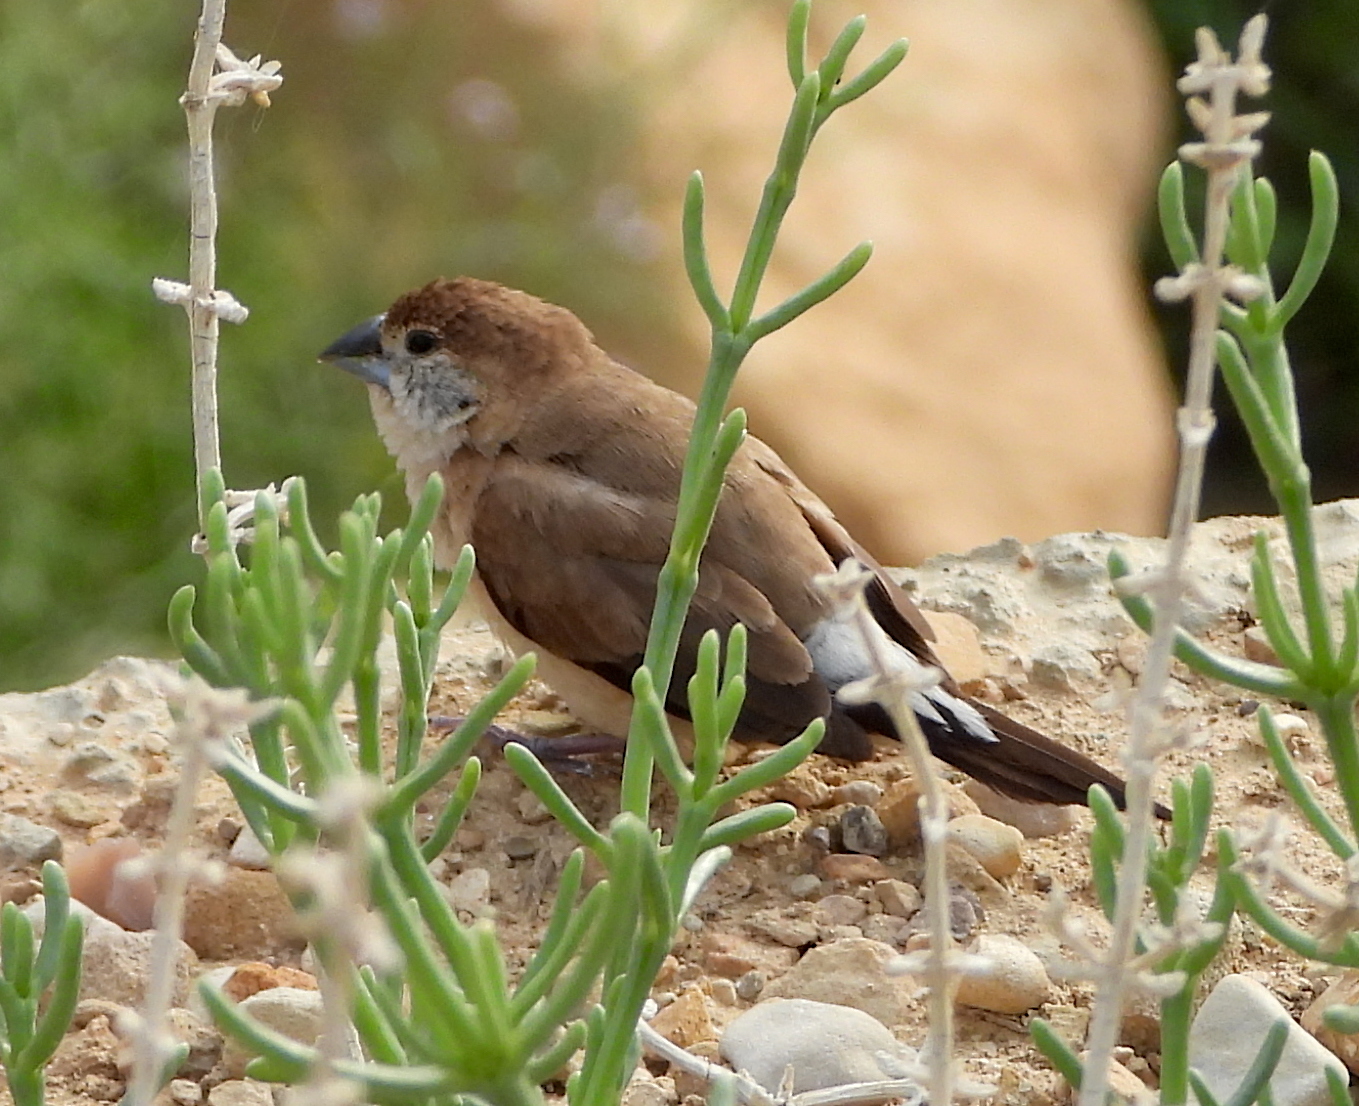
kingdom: Animalia
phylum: Chordata
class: Aves
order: Passeriformes
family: Estrildidae
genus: Euodice
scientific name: Euodice malabarica
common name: Indian silverbill
